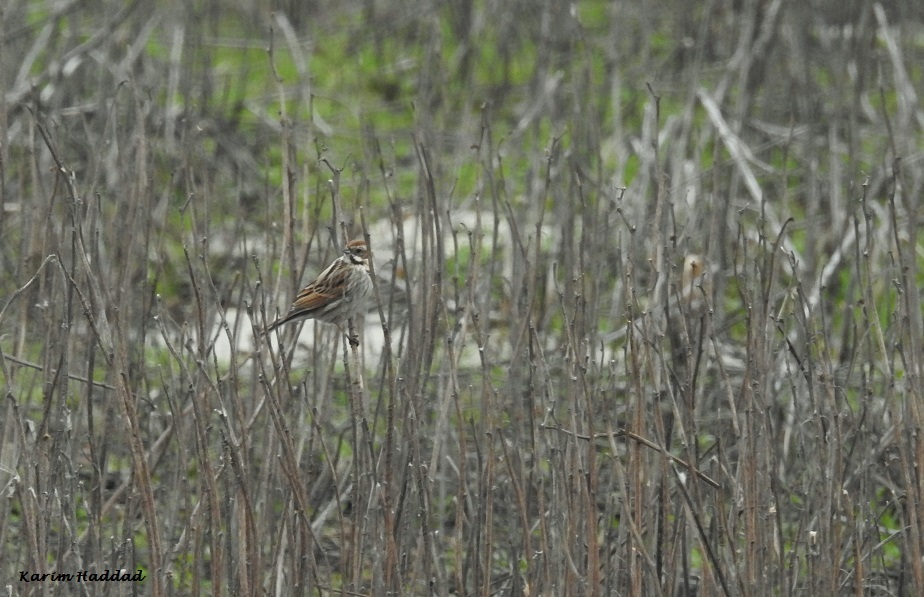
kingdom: Animalia
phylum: Chordata
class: Aves
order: Passeriformes
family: Emberizidae
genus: Emberiza
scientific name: Emberiza schoeniclus
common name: Reed bunting
